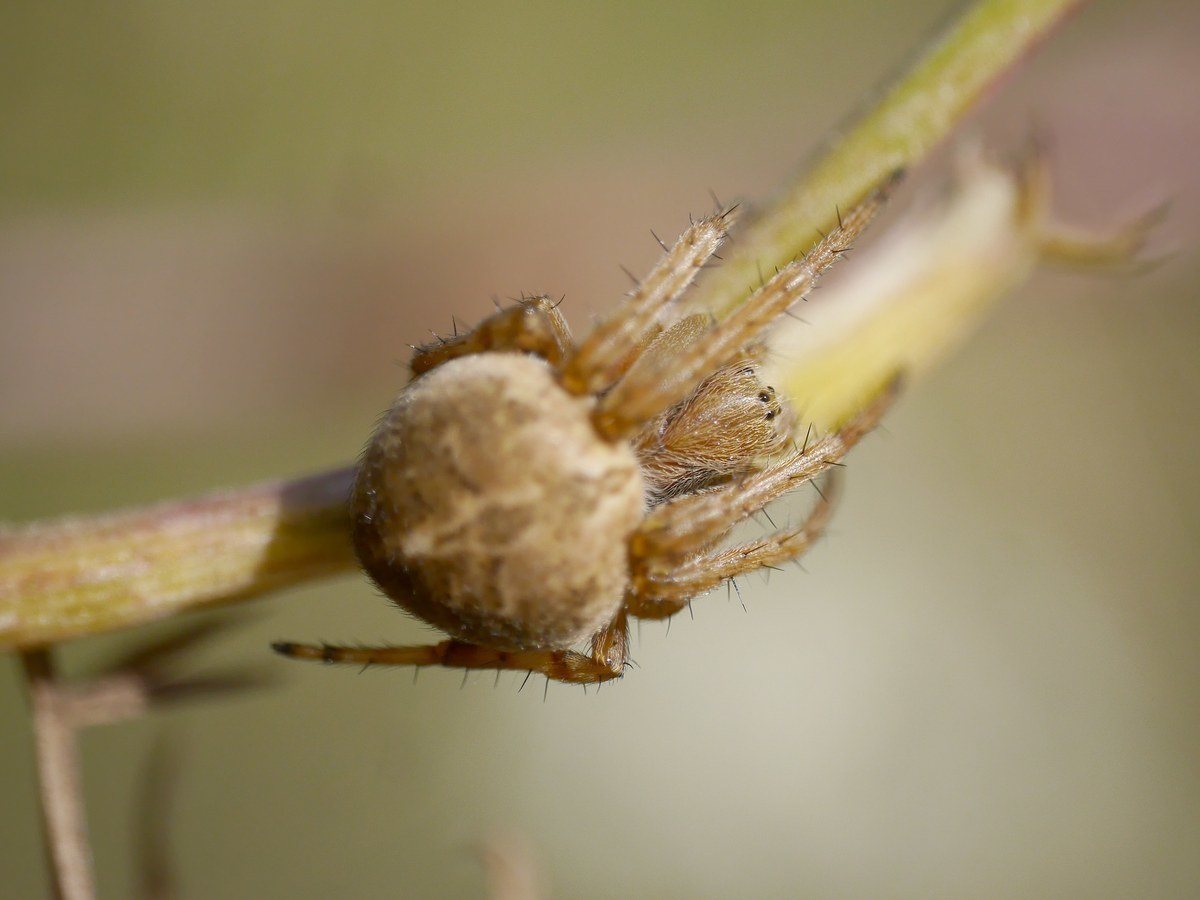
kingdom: Animalia
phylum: Arthropoda
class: Arachnida
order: Araneae
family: Araneidae
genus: Agalenatea
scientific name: Agalenatea redii
